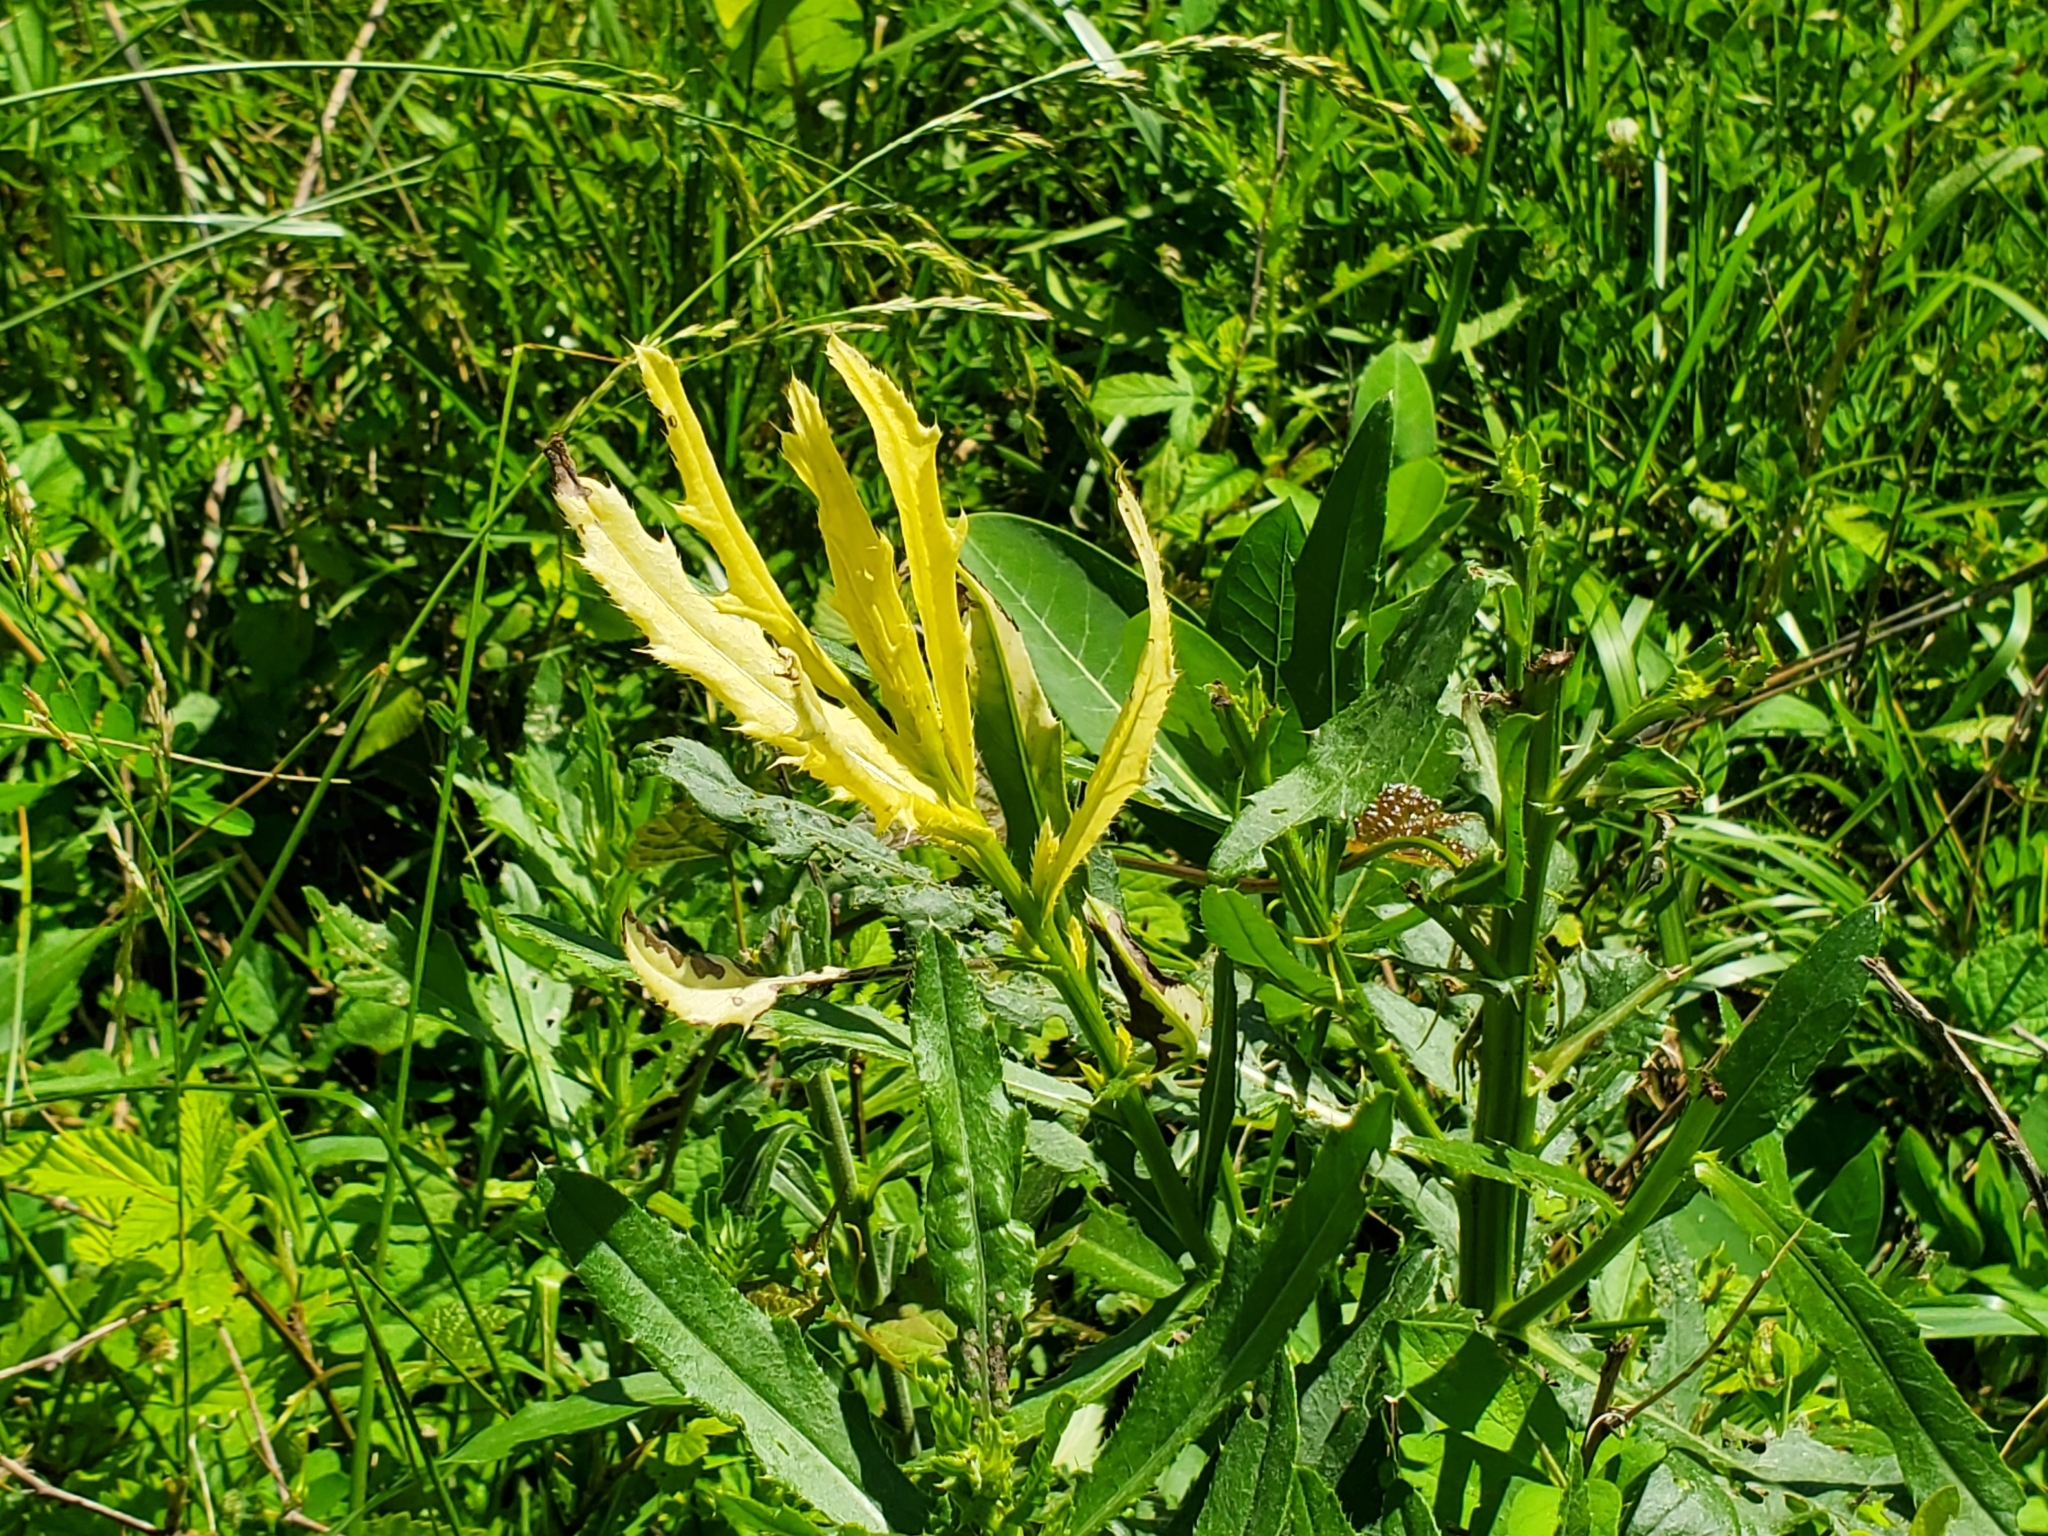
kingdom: Bacteria
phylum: Proteobacteria
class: Gammaproteobacteria
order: Pseudomonadales
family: Pseudomonadaceae
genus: Pseudomonas
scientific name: Pseudomonas syringae
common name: Bacterial speck
